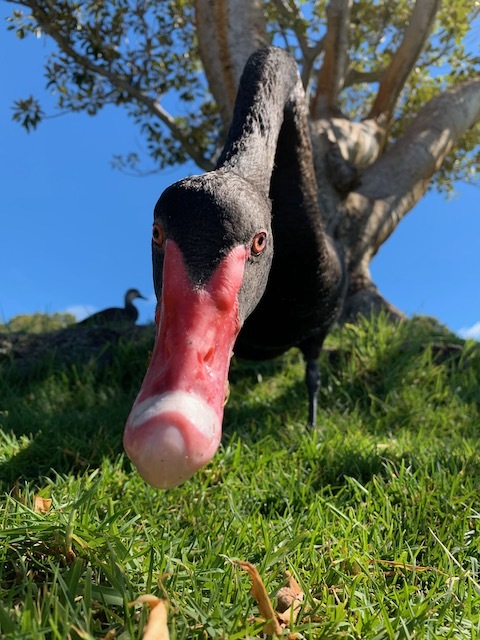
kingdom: Animalia
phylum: Chordata
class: Aves
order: Anseriformes
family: Anatidae
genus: Cygnus
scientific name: Cygnus atratus
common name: Black swan
